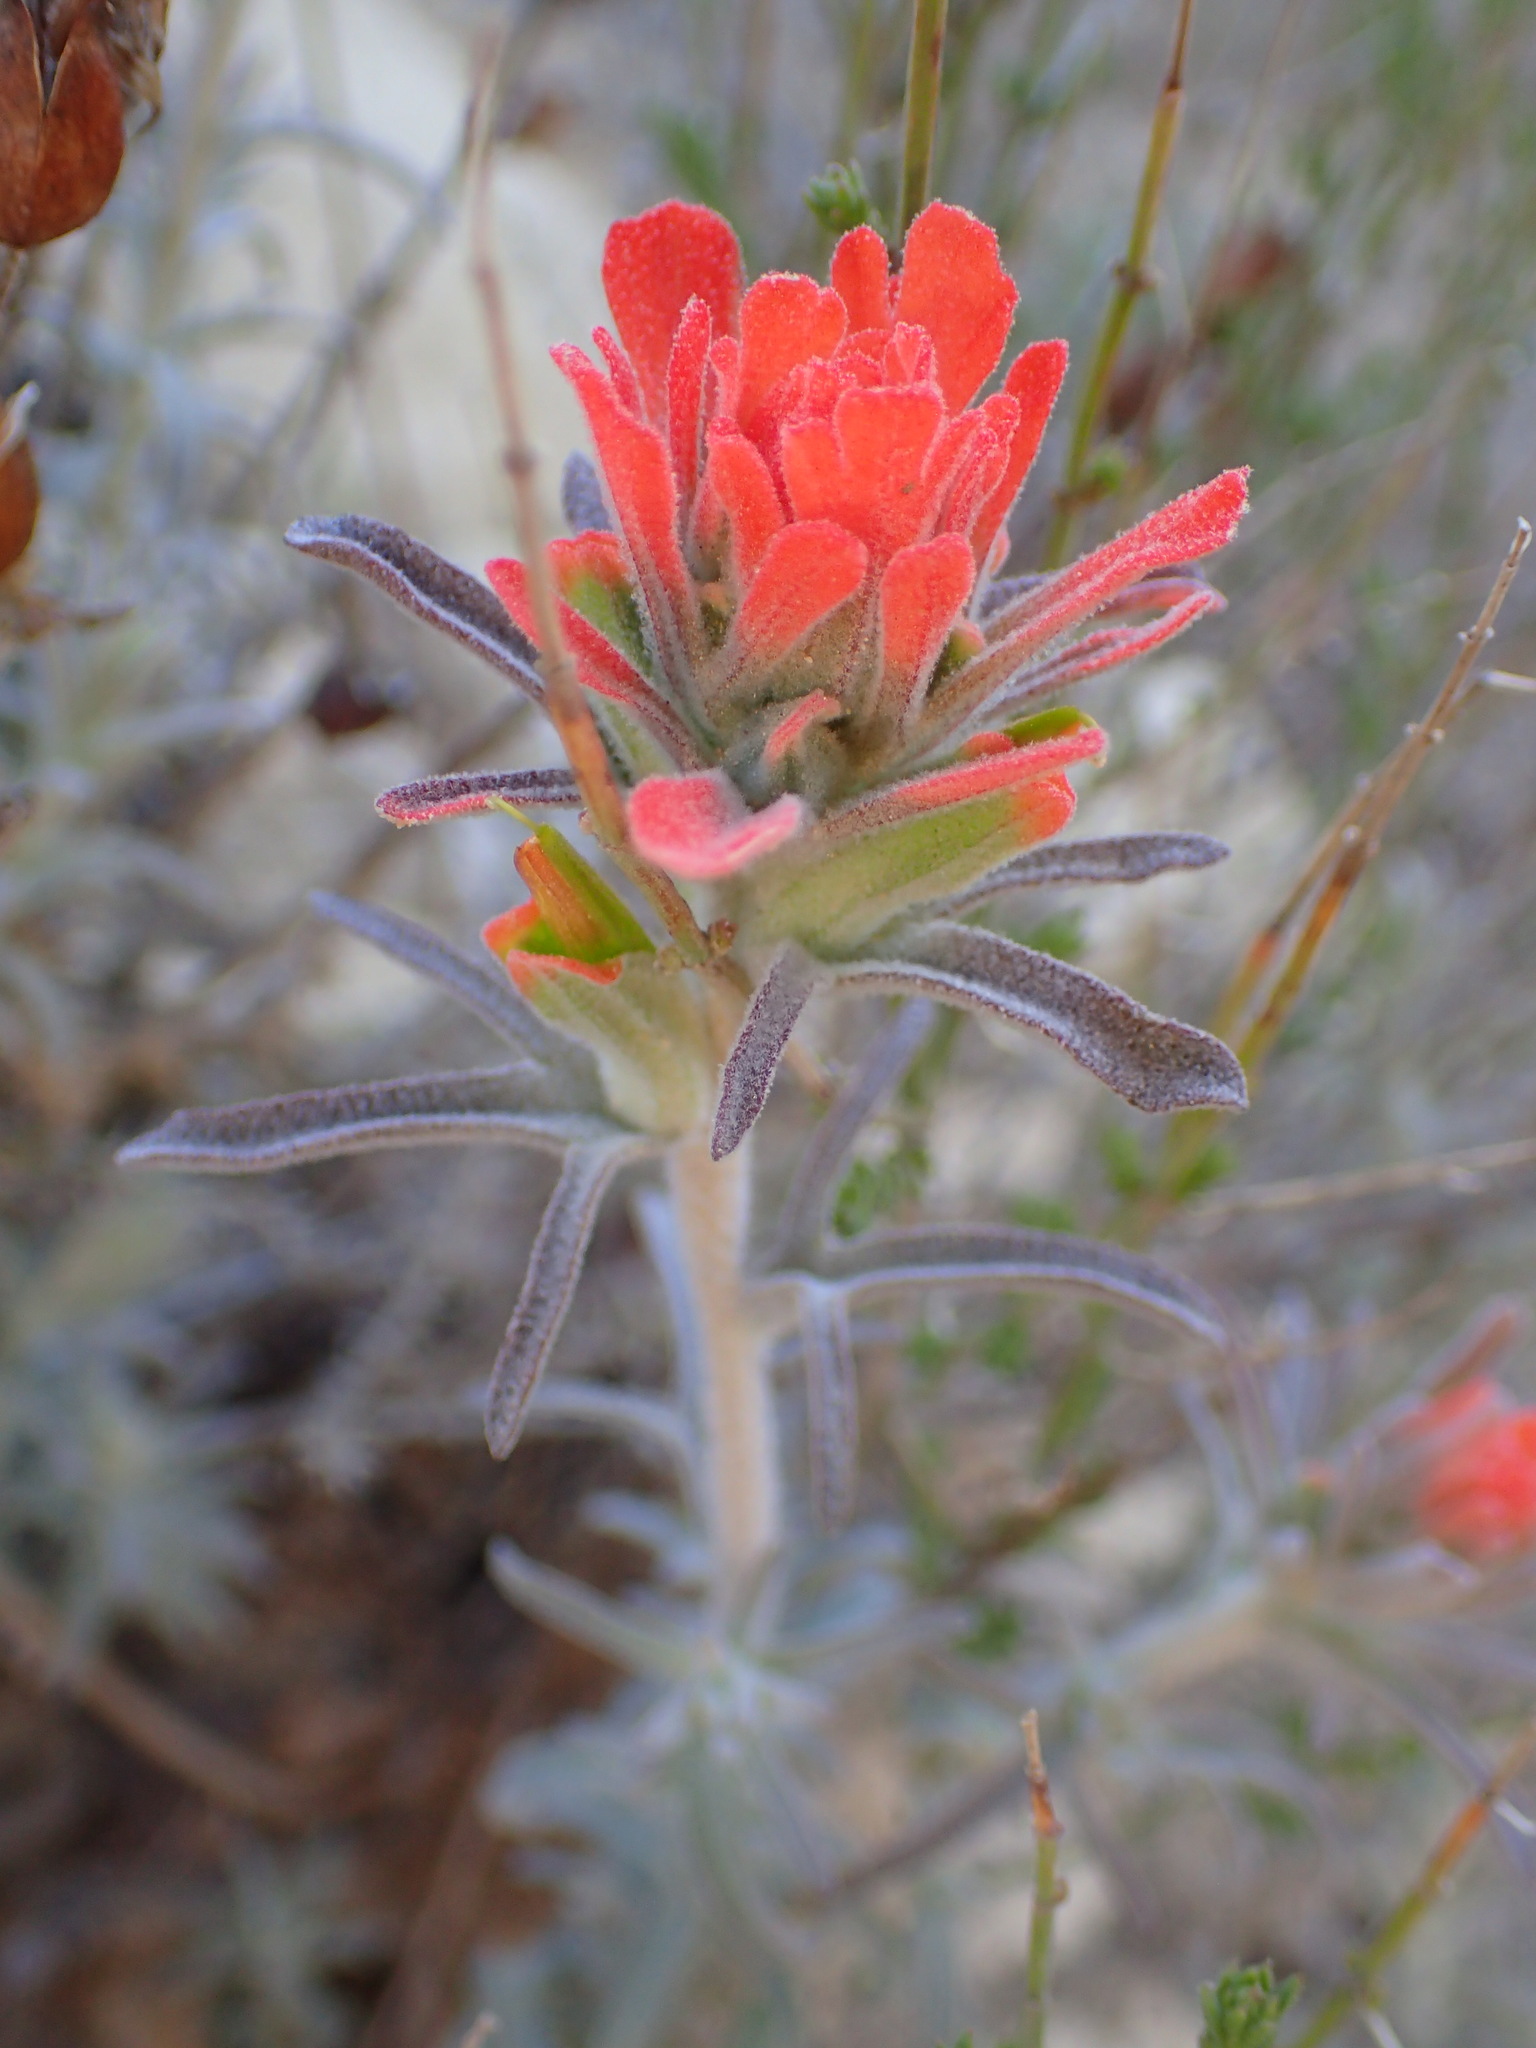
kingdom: Plantae
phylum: Tracheophyta
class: Magnoliopsida
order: Lamiales
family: Orobanchaceae
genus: Castilleja
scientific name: Castilleja foliolosa
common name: Woolly indian paintbrush
